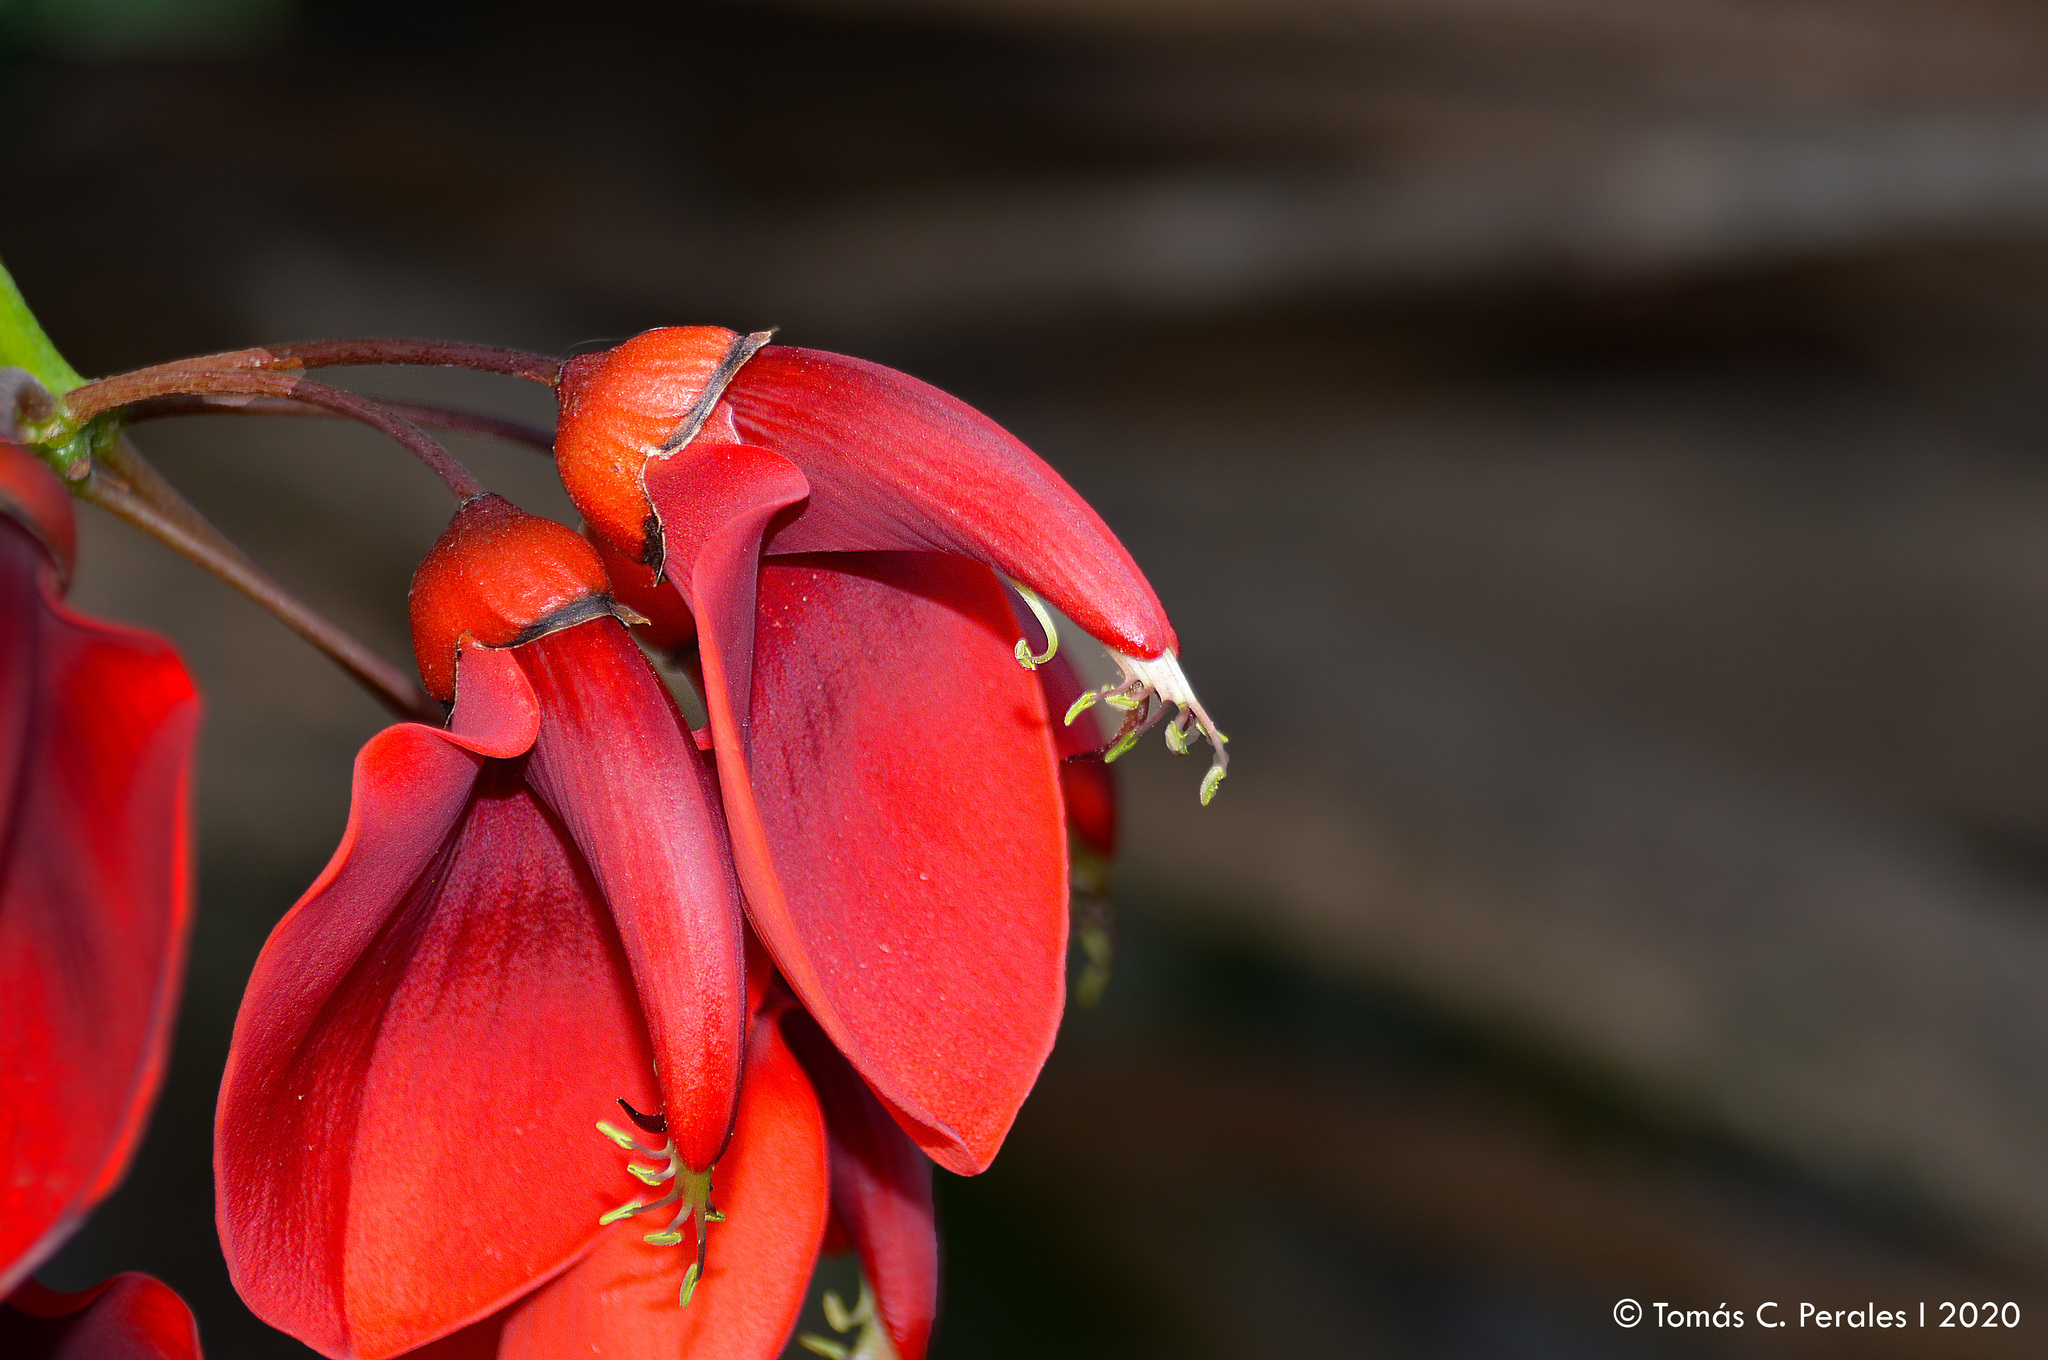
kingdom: Plantae
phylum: Tracheophyta
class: Magnoliopsida
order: Fabales
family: Fabaceae
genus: Erythrina
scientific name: Erythrina crista-galli
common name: Cockspur coral tree
